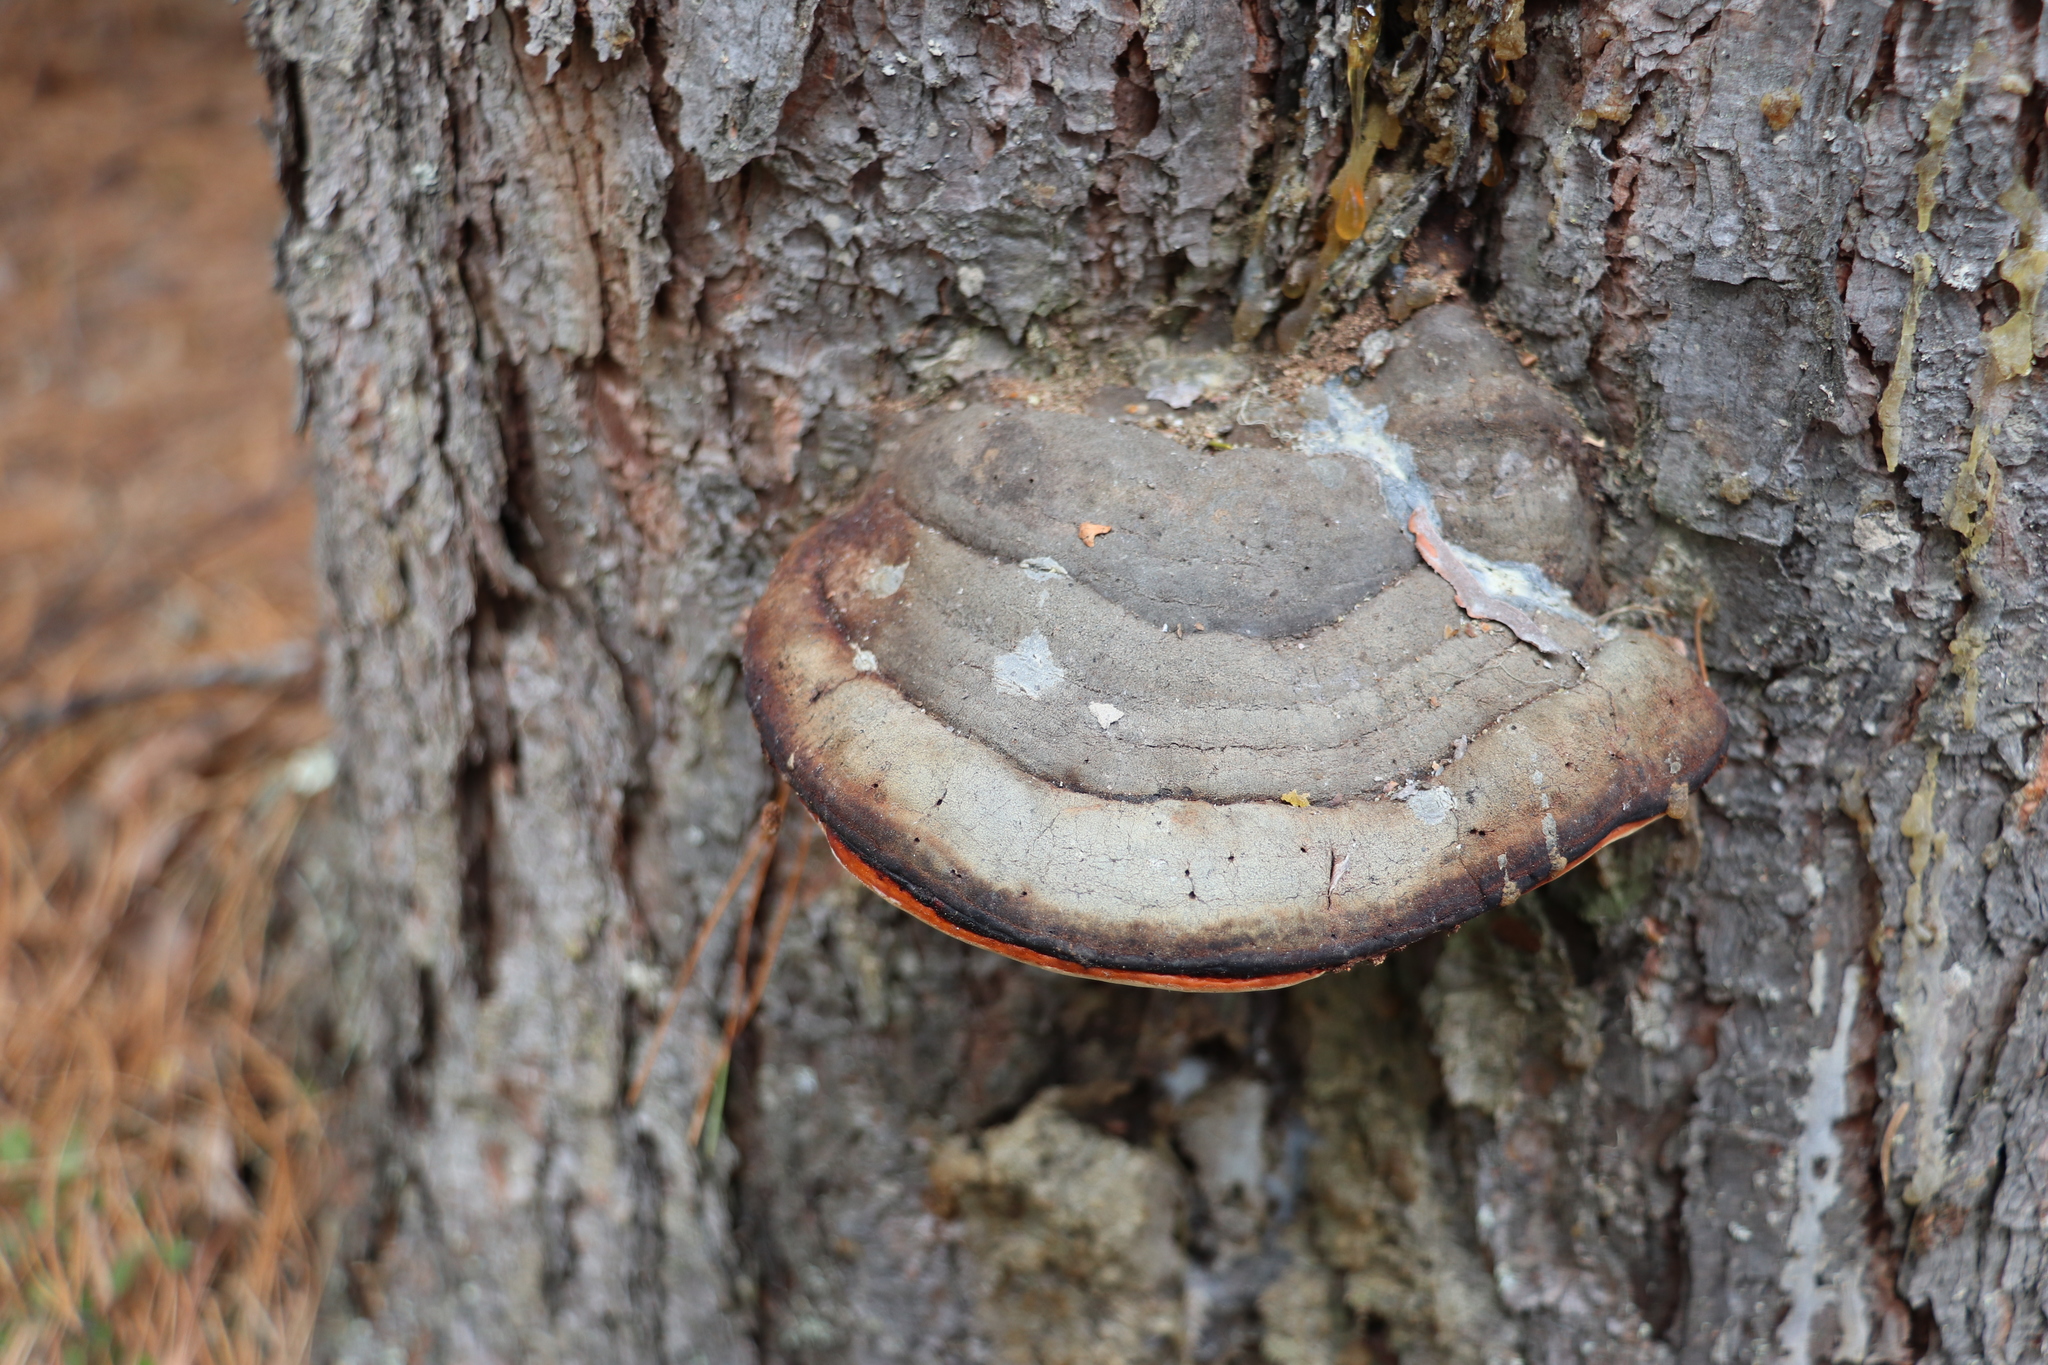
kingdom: Fungi
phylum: Basidiomycota
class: Agaricomycetes
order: Polyporales
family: Fomitopsidaceae
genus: Fomitopsis
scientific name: Fomitopsis pinicola
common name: Red-belted bracket
